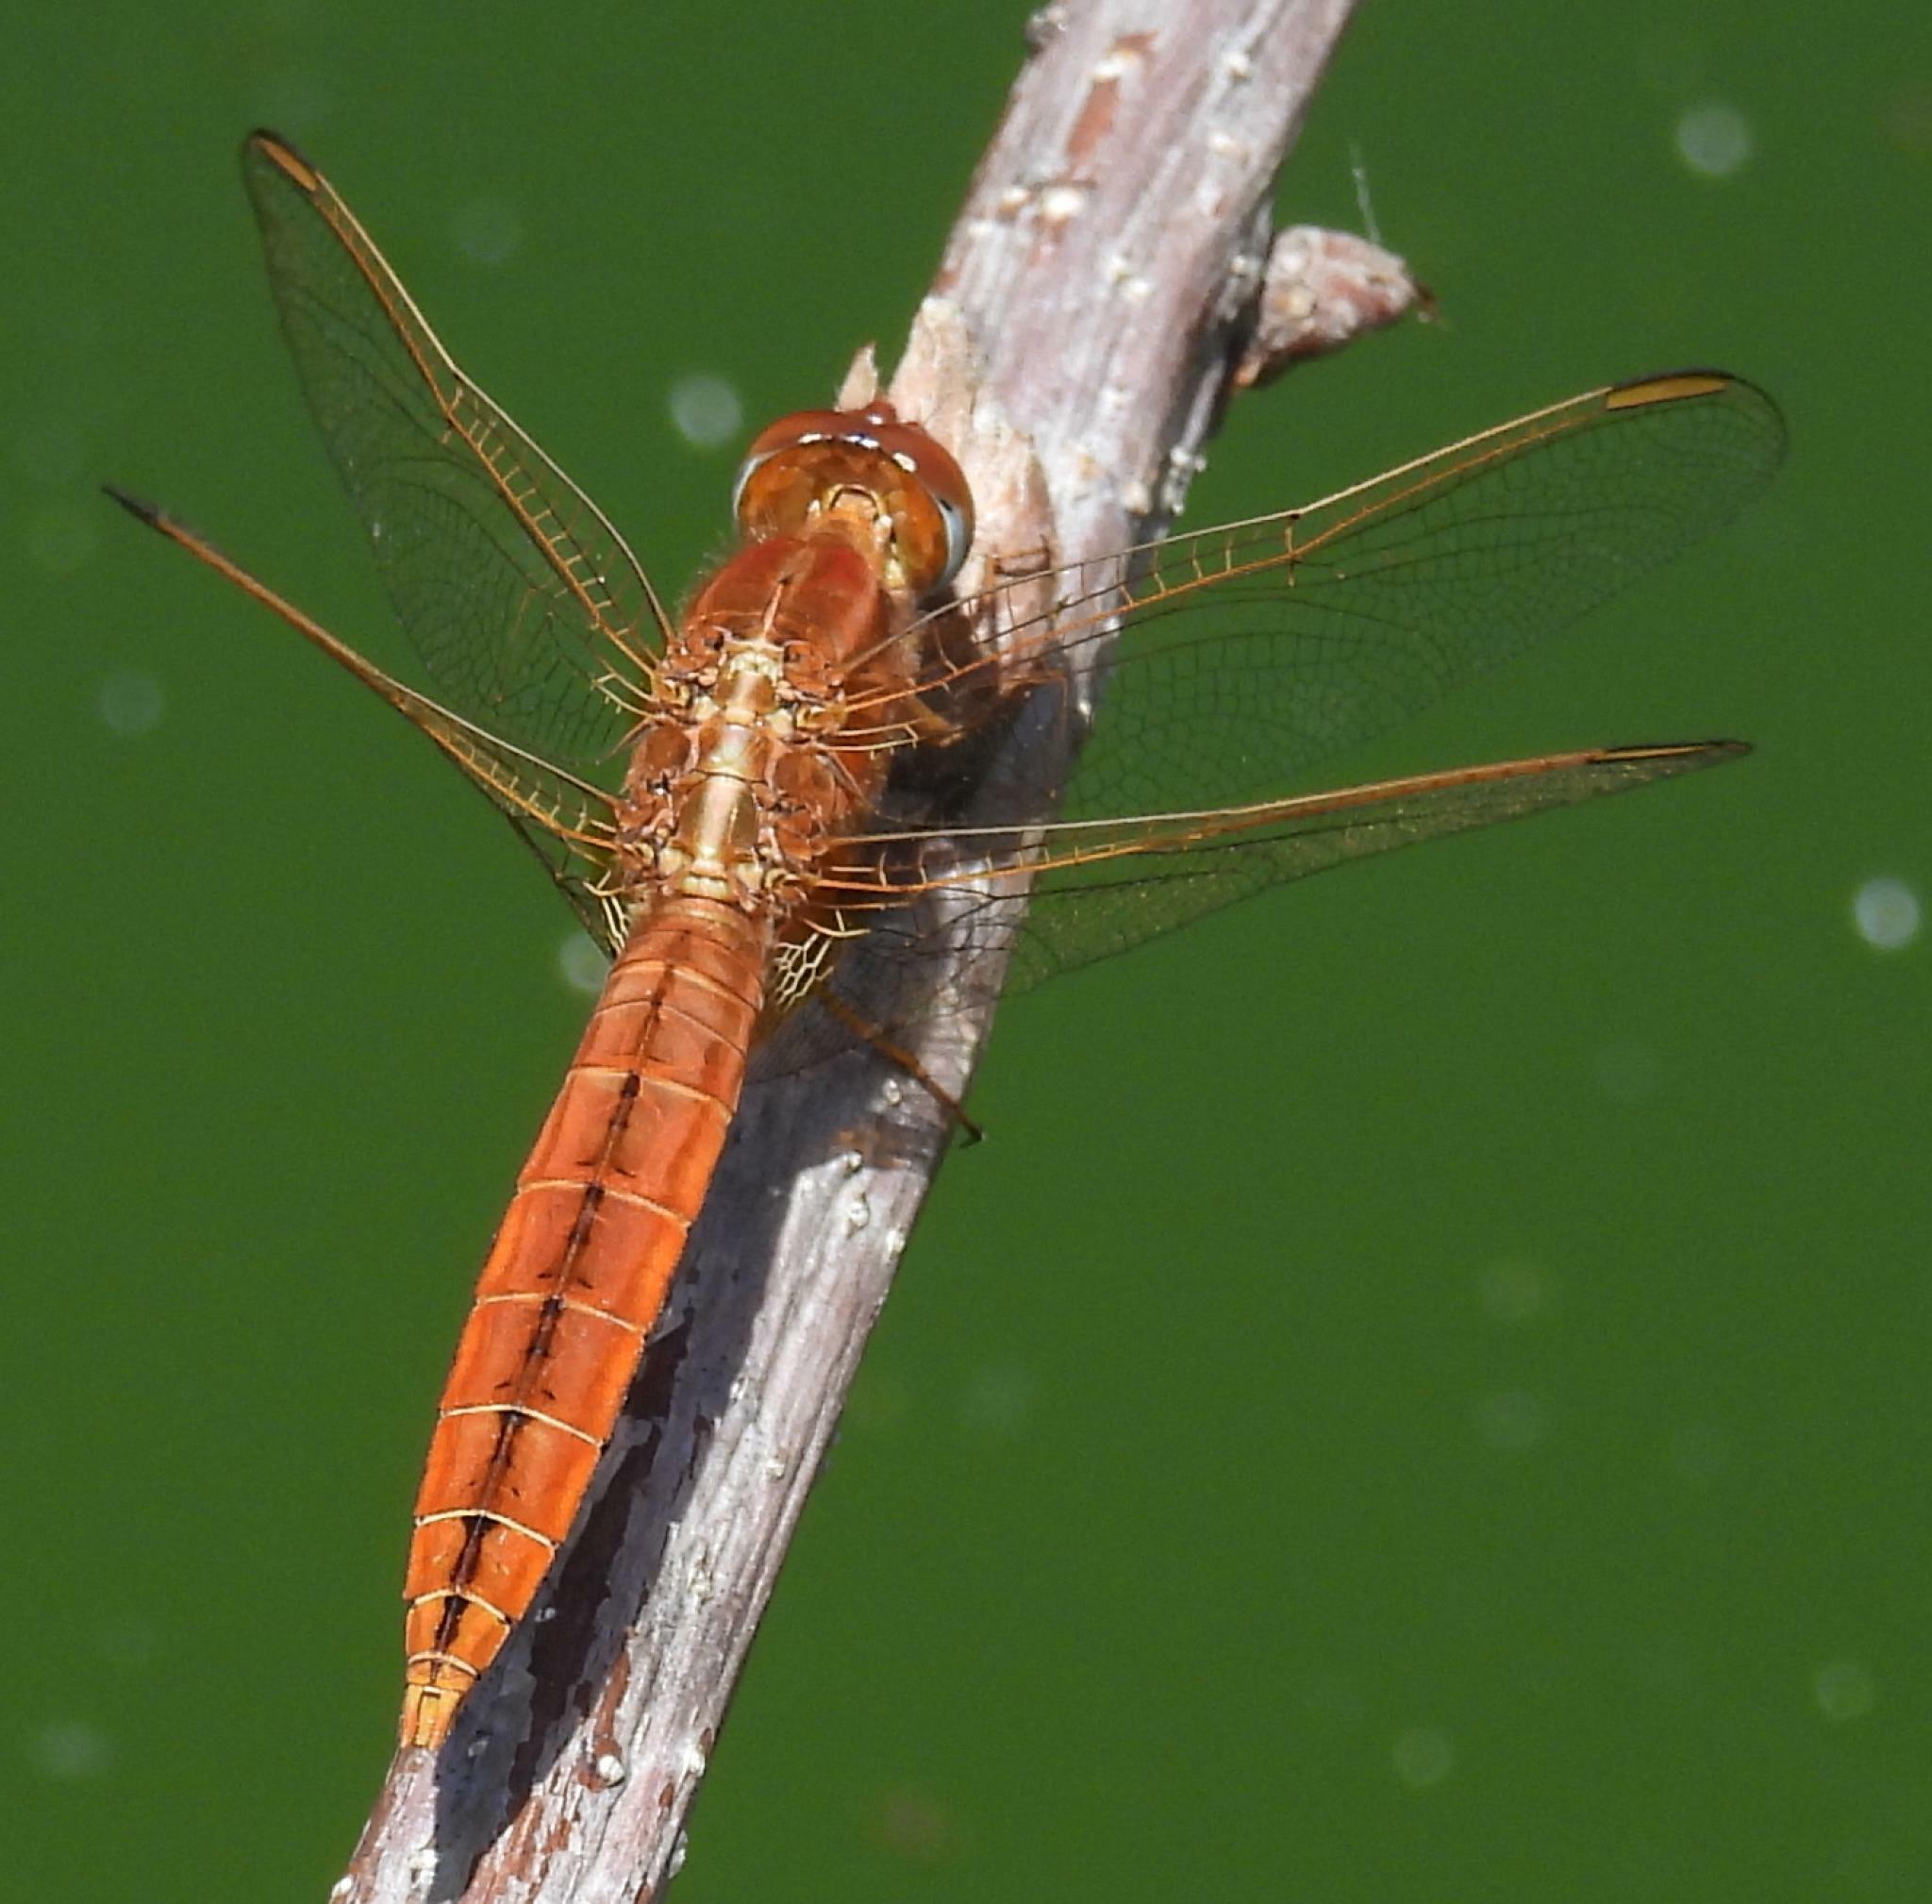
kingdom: Animalia
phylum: Arthropoda
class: Insecta
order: Odonata
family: Libellulidae
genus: Crocothemis
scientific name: Crocothemis erythraea
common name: Scarlet dragonfly
